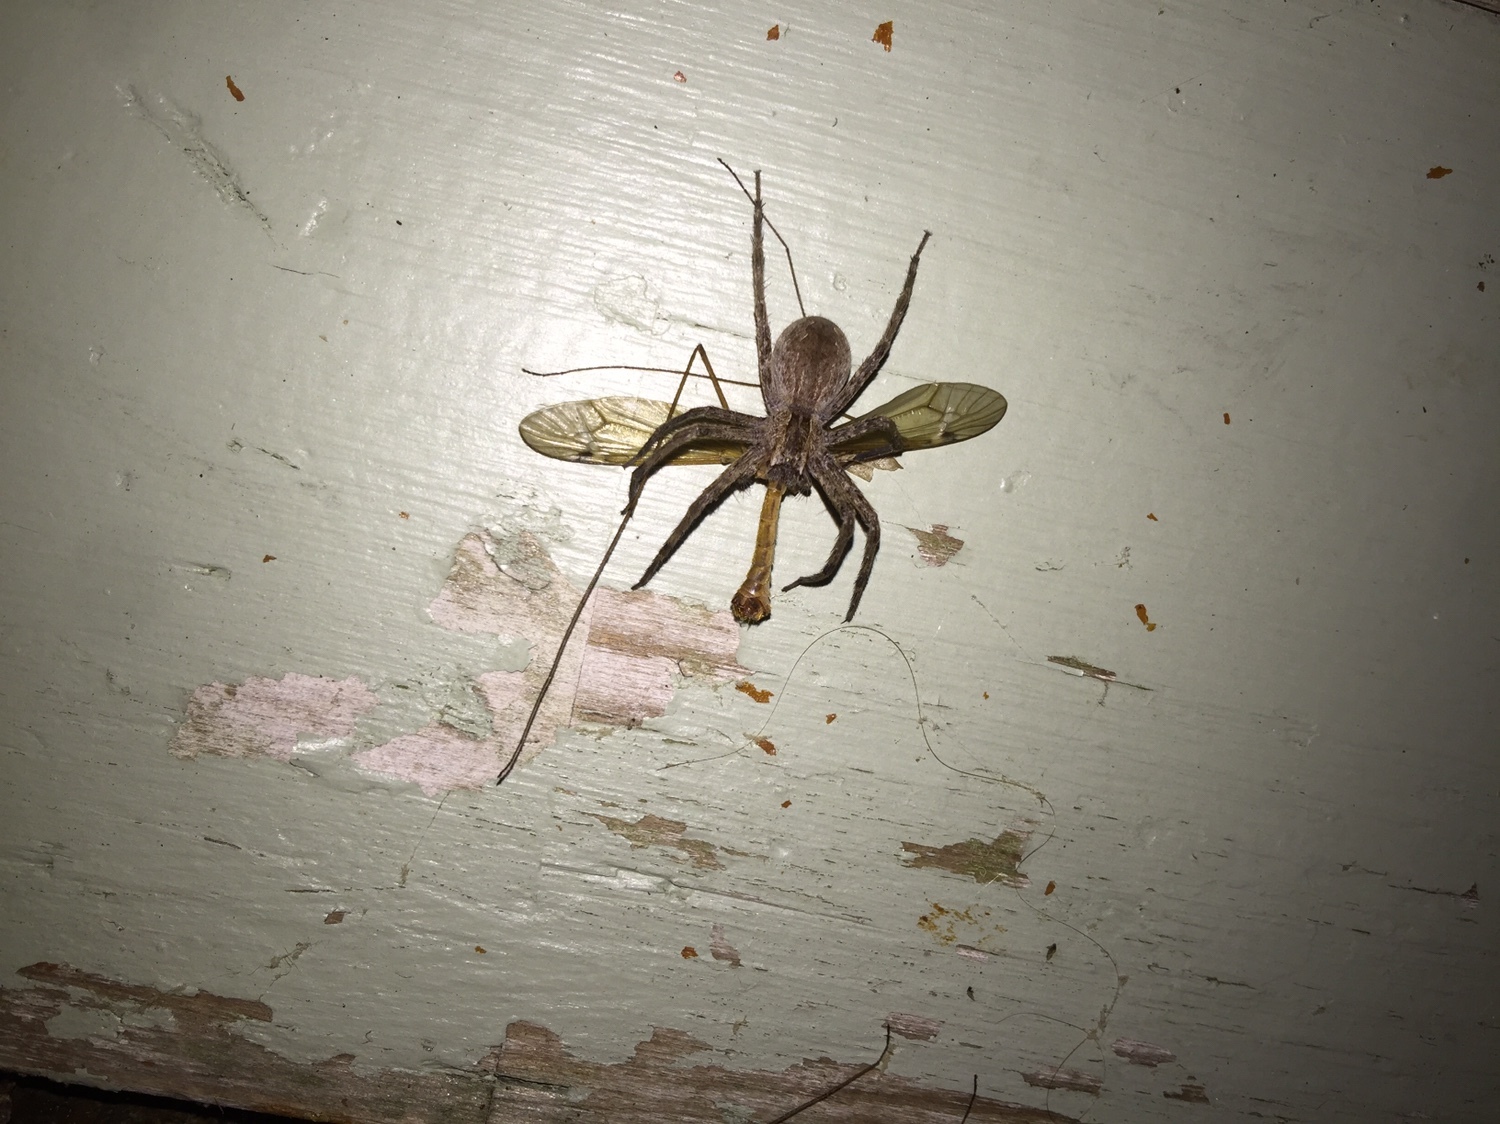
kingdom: Animalia
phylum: Arthropoda
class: Arachnida
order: Araneae
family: Pisauridae
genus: Pisaurina
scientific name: Pisaurina mira
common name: American nursery web spider
